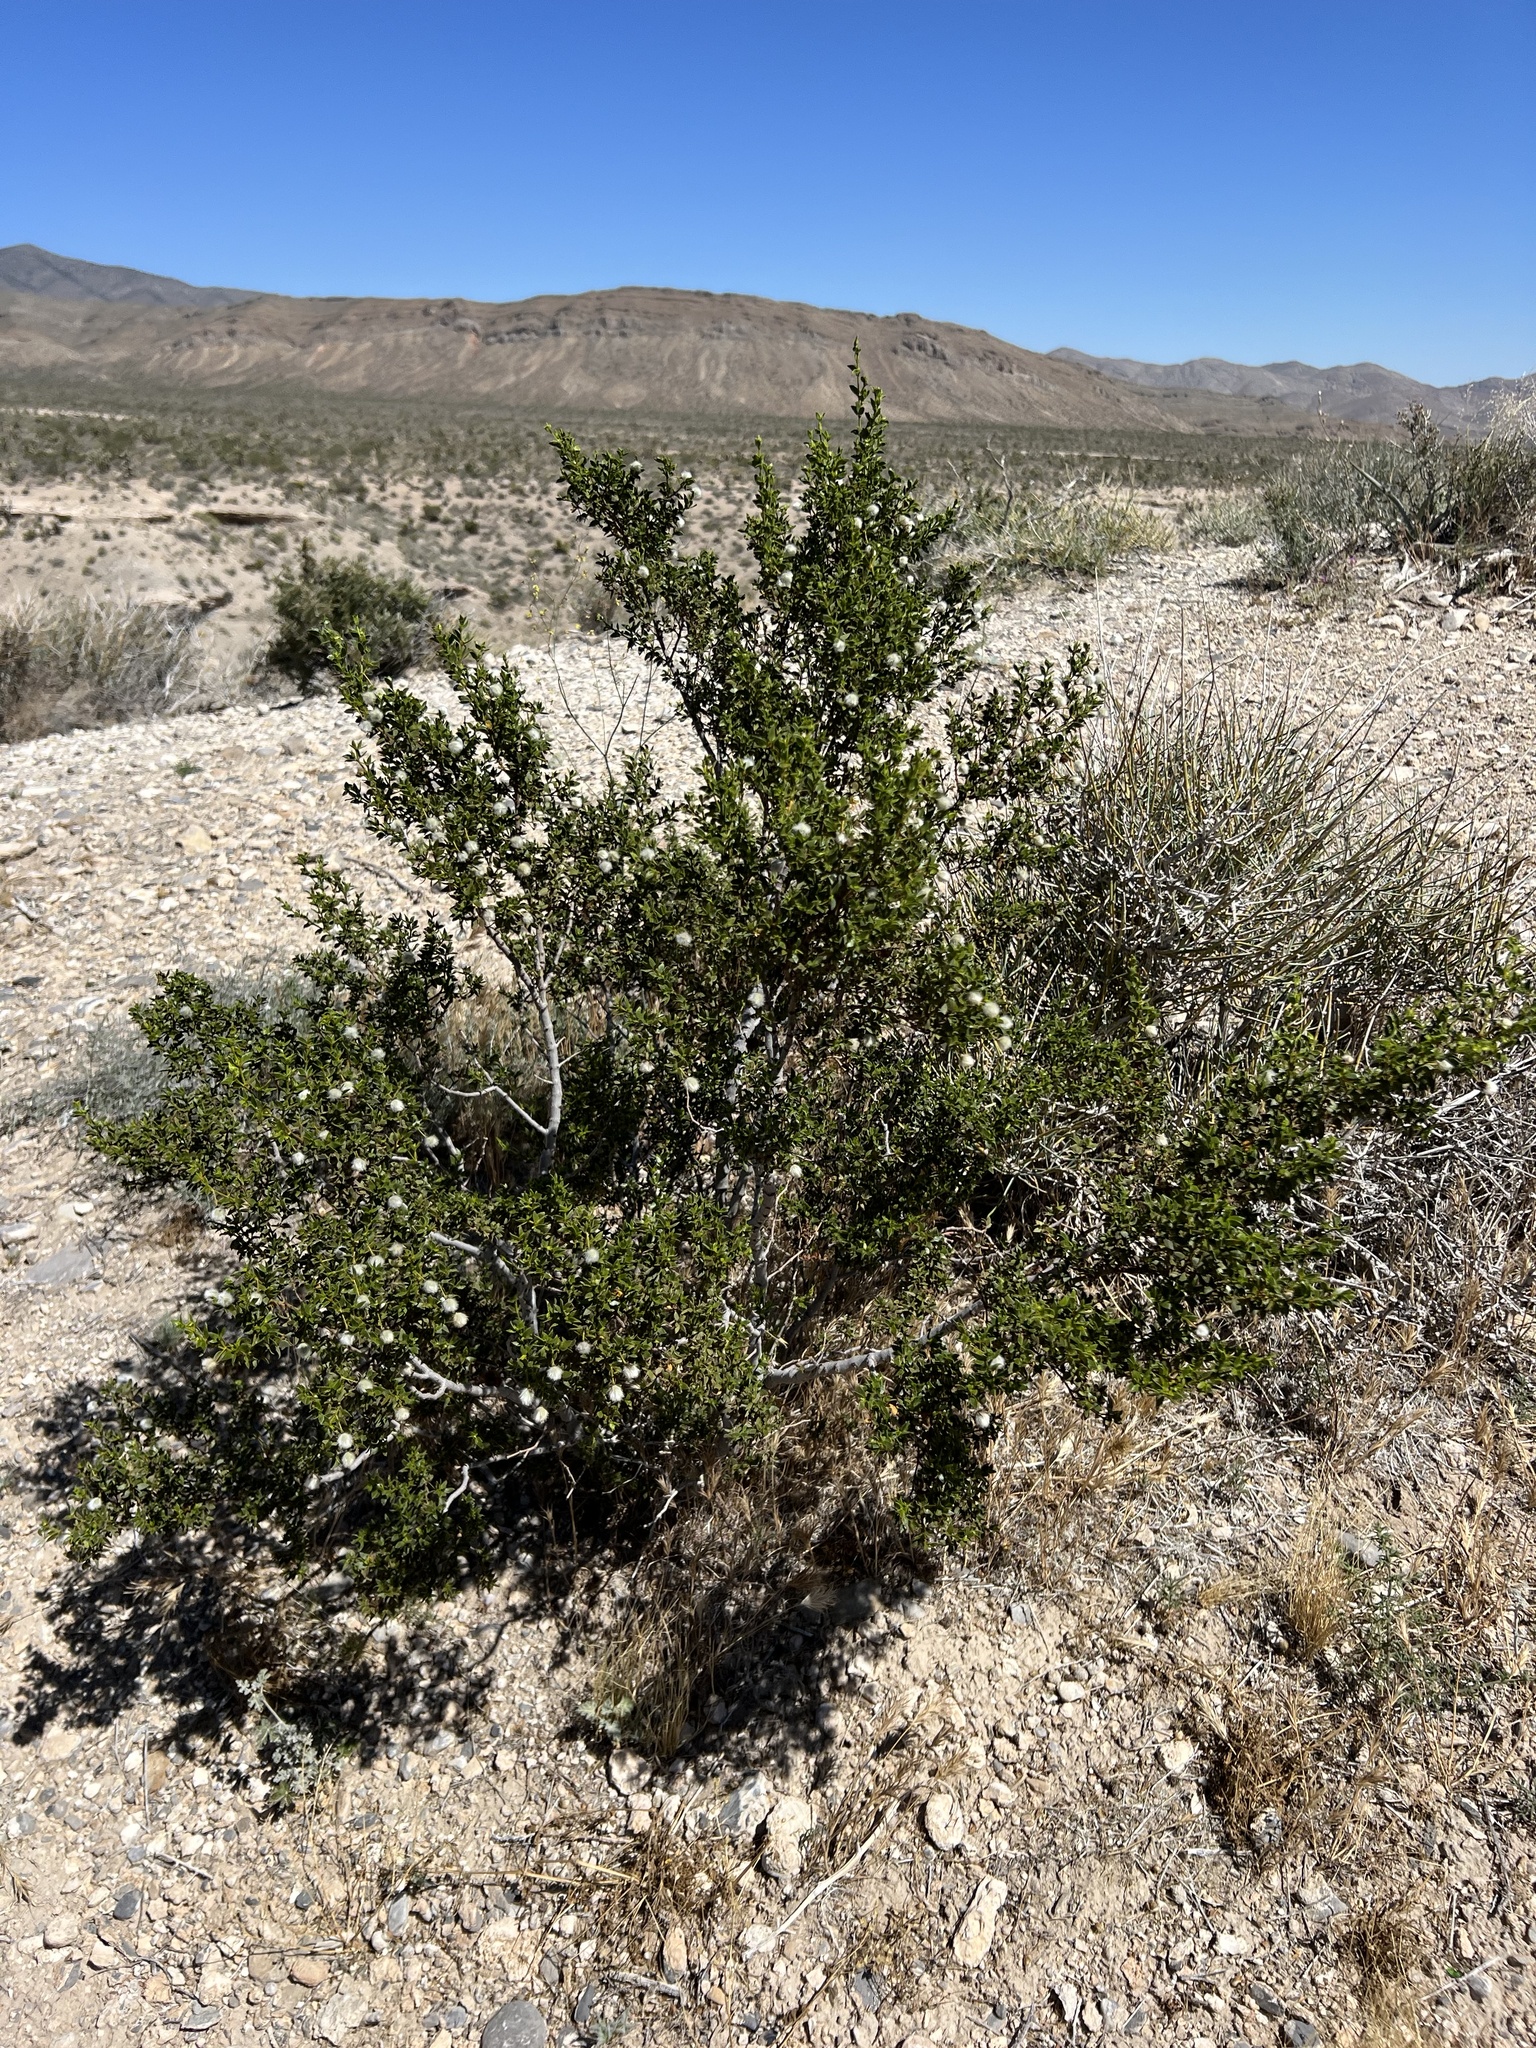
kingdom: Plantae
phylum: Tracheophyta
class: Magnoliopsida
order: Zygophyllales
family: Zygophyllaceae
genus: Larrea
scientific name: Larrea tridentata
